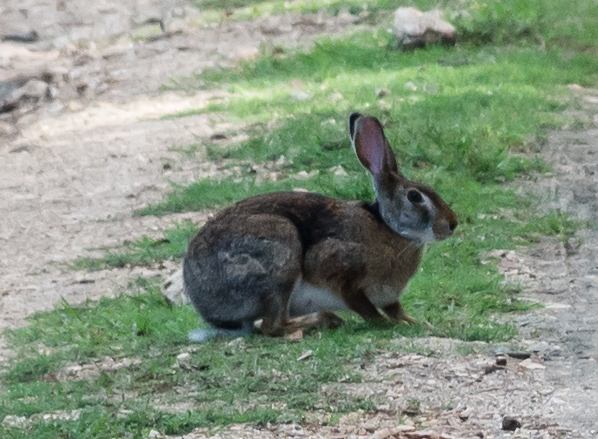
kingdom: Animalia
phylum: Chordata
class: Mammalia
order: Lagomorpha
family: Leporidae
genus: Lepus
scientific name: Lepus nigricollis
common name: Indian hare
